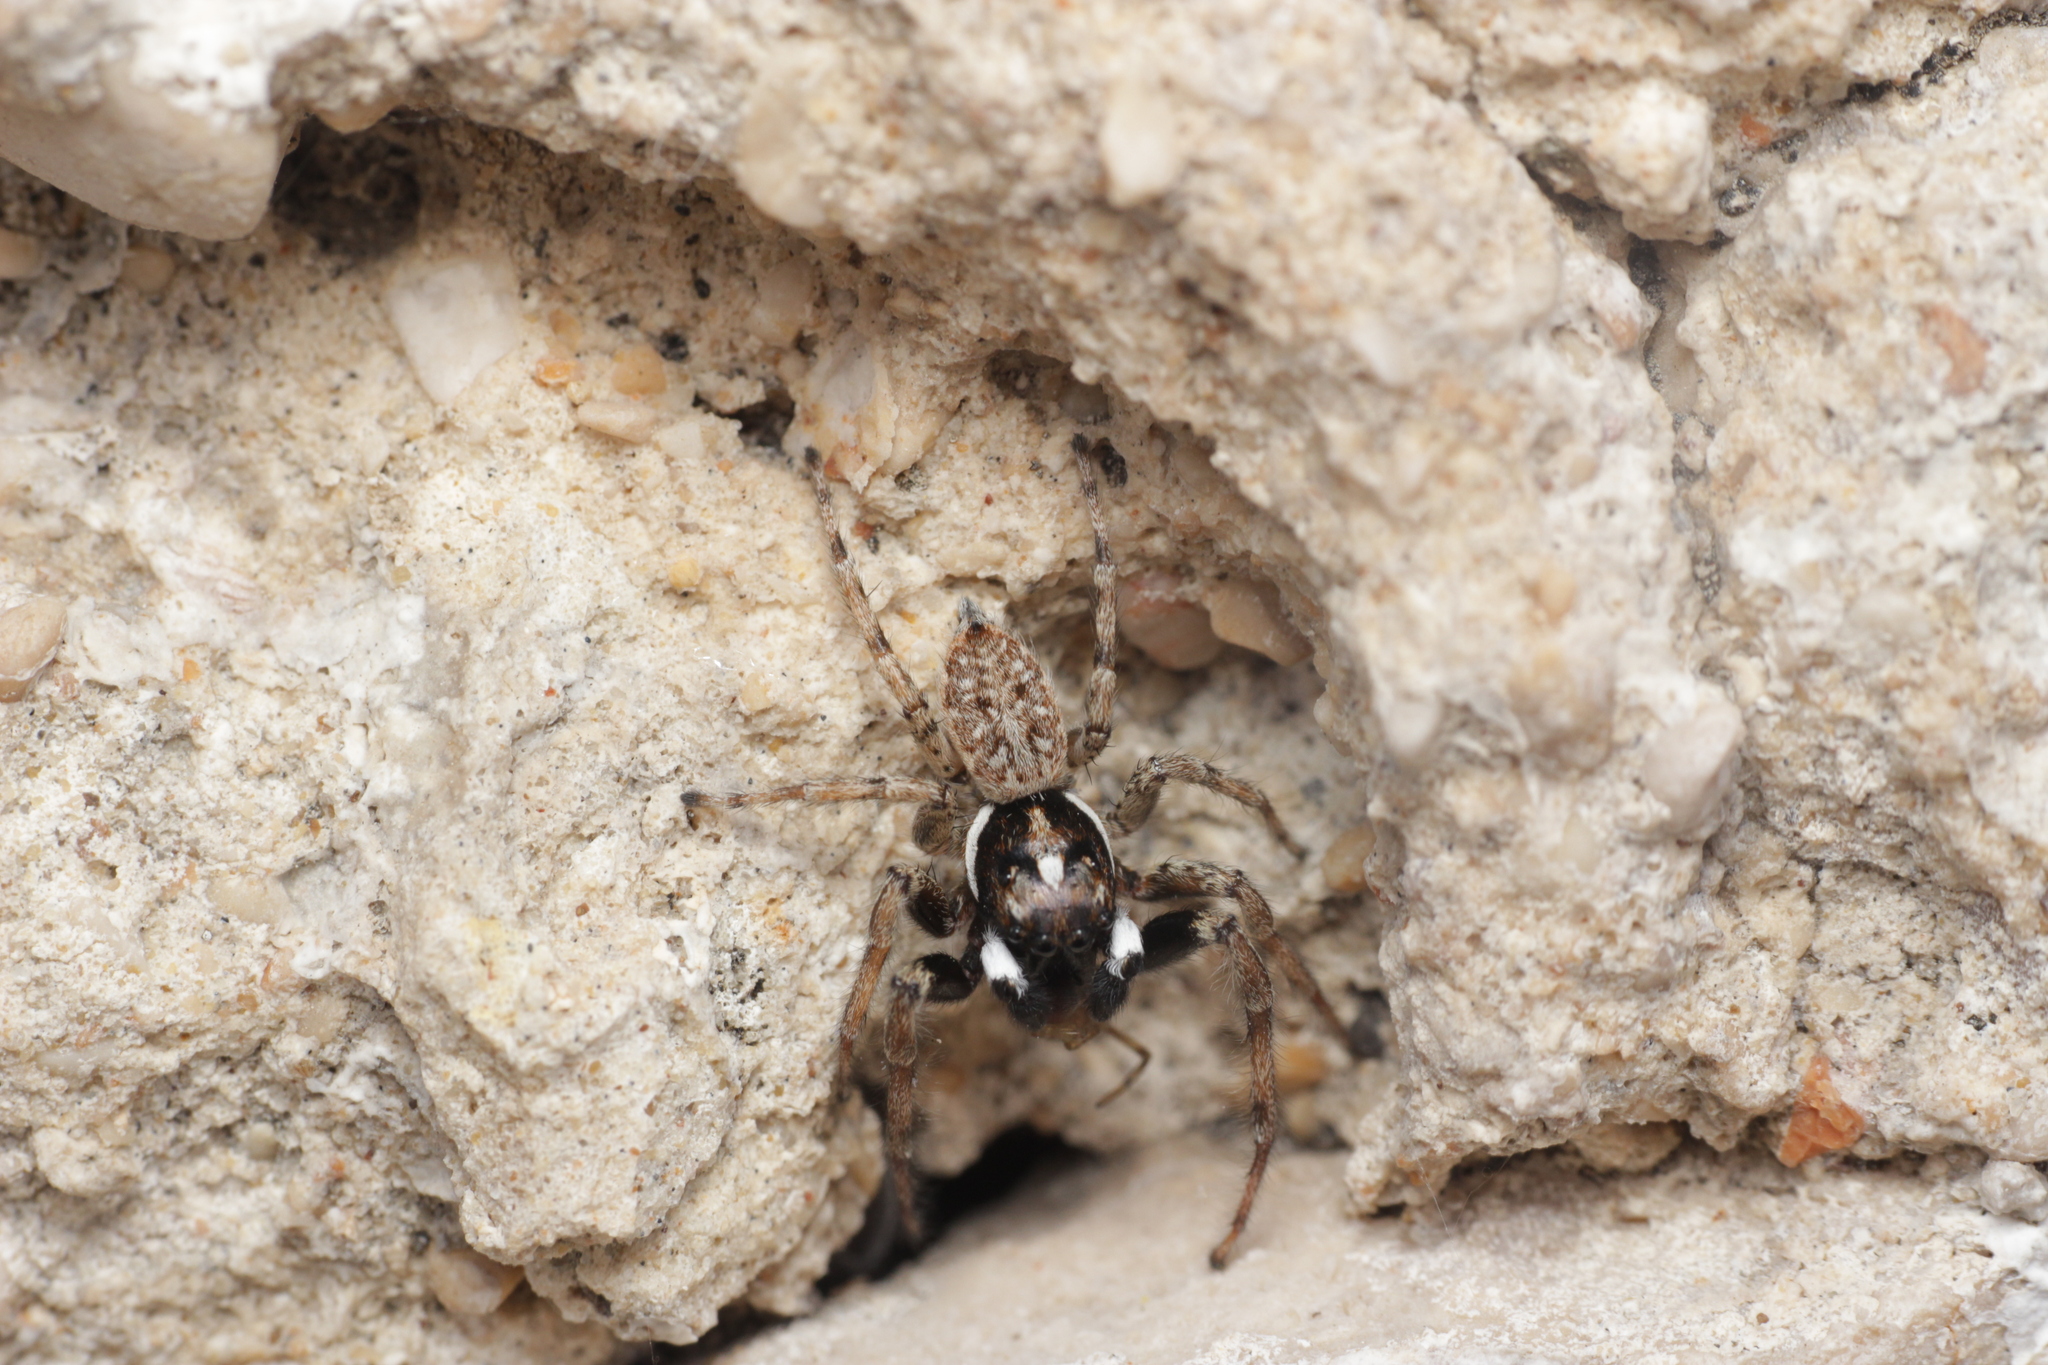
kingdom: Animalia
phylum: Arthropoda
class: Arachnida
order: Araneae
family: Salticidae
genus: Menemerus
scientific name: Menemerus semilimbatus
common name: Jumping spider
